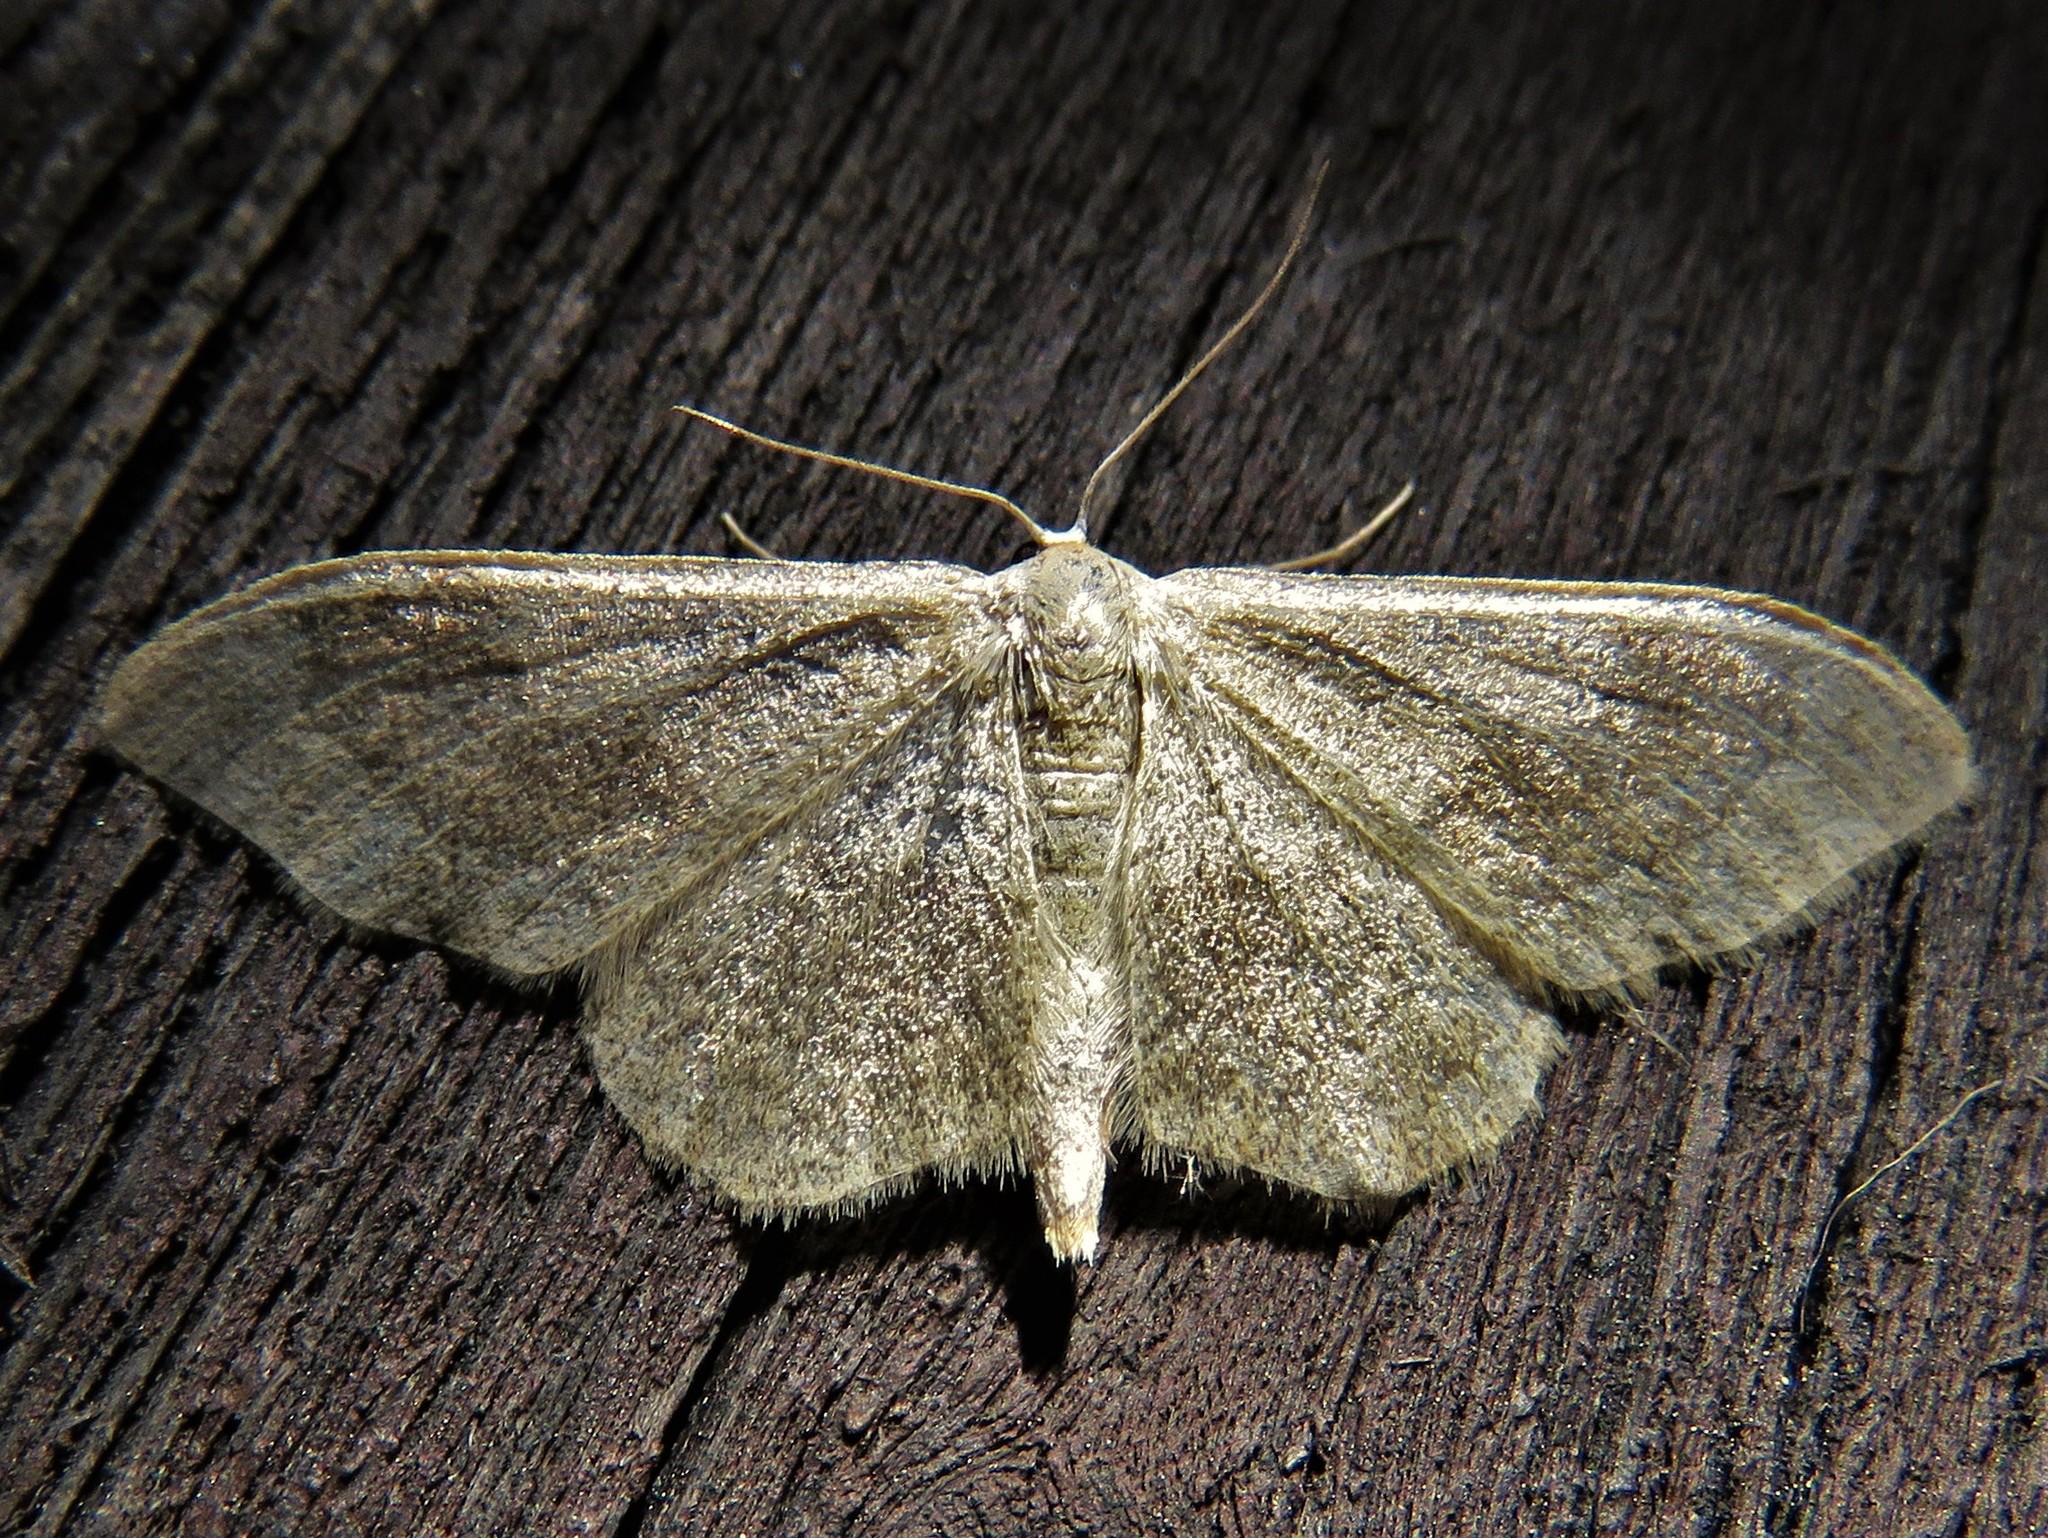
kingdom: Animalia
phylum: Arthropoda
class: Insecta
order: Lepidoptera
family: Geometridae
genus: Idaea
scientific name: Idaea aversata
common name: Riband wave
